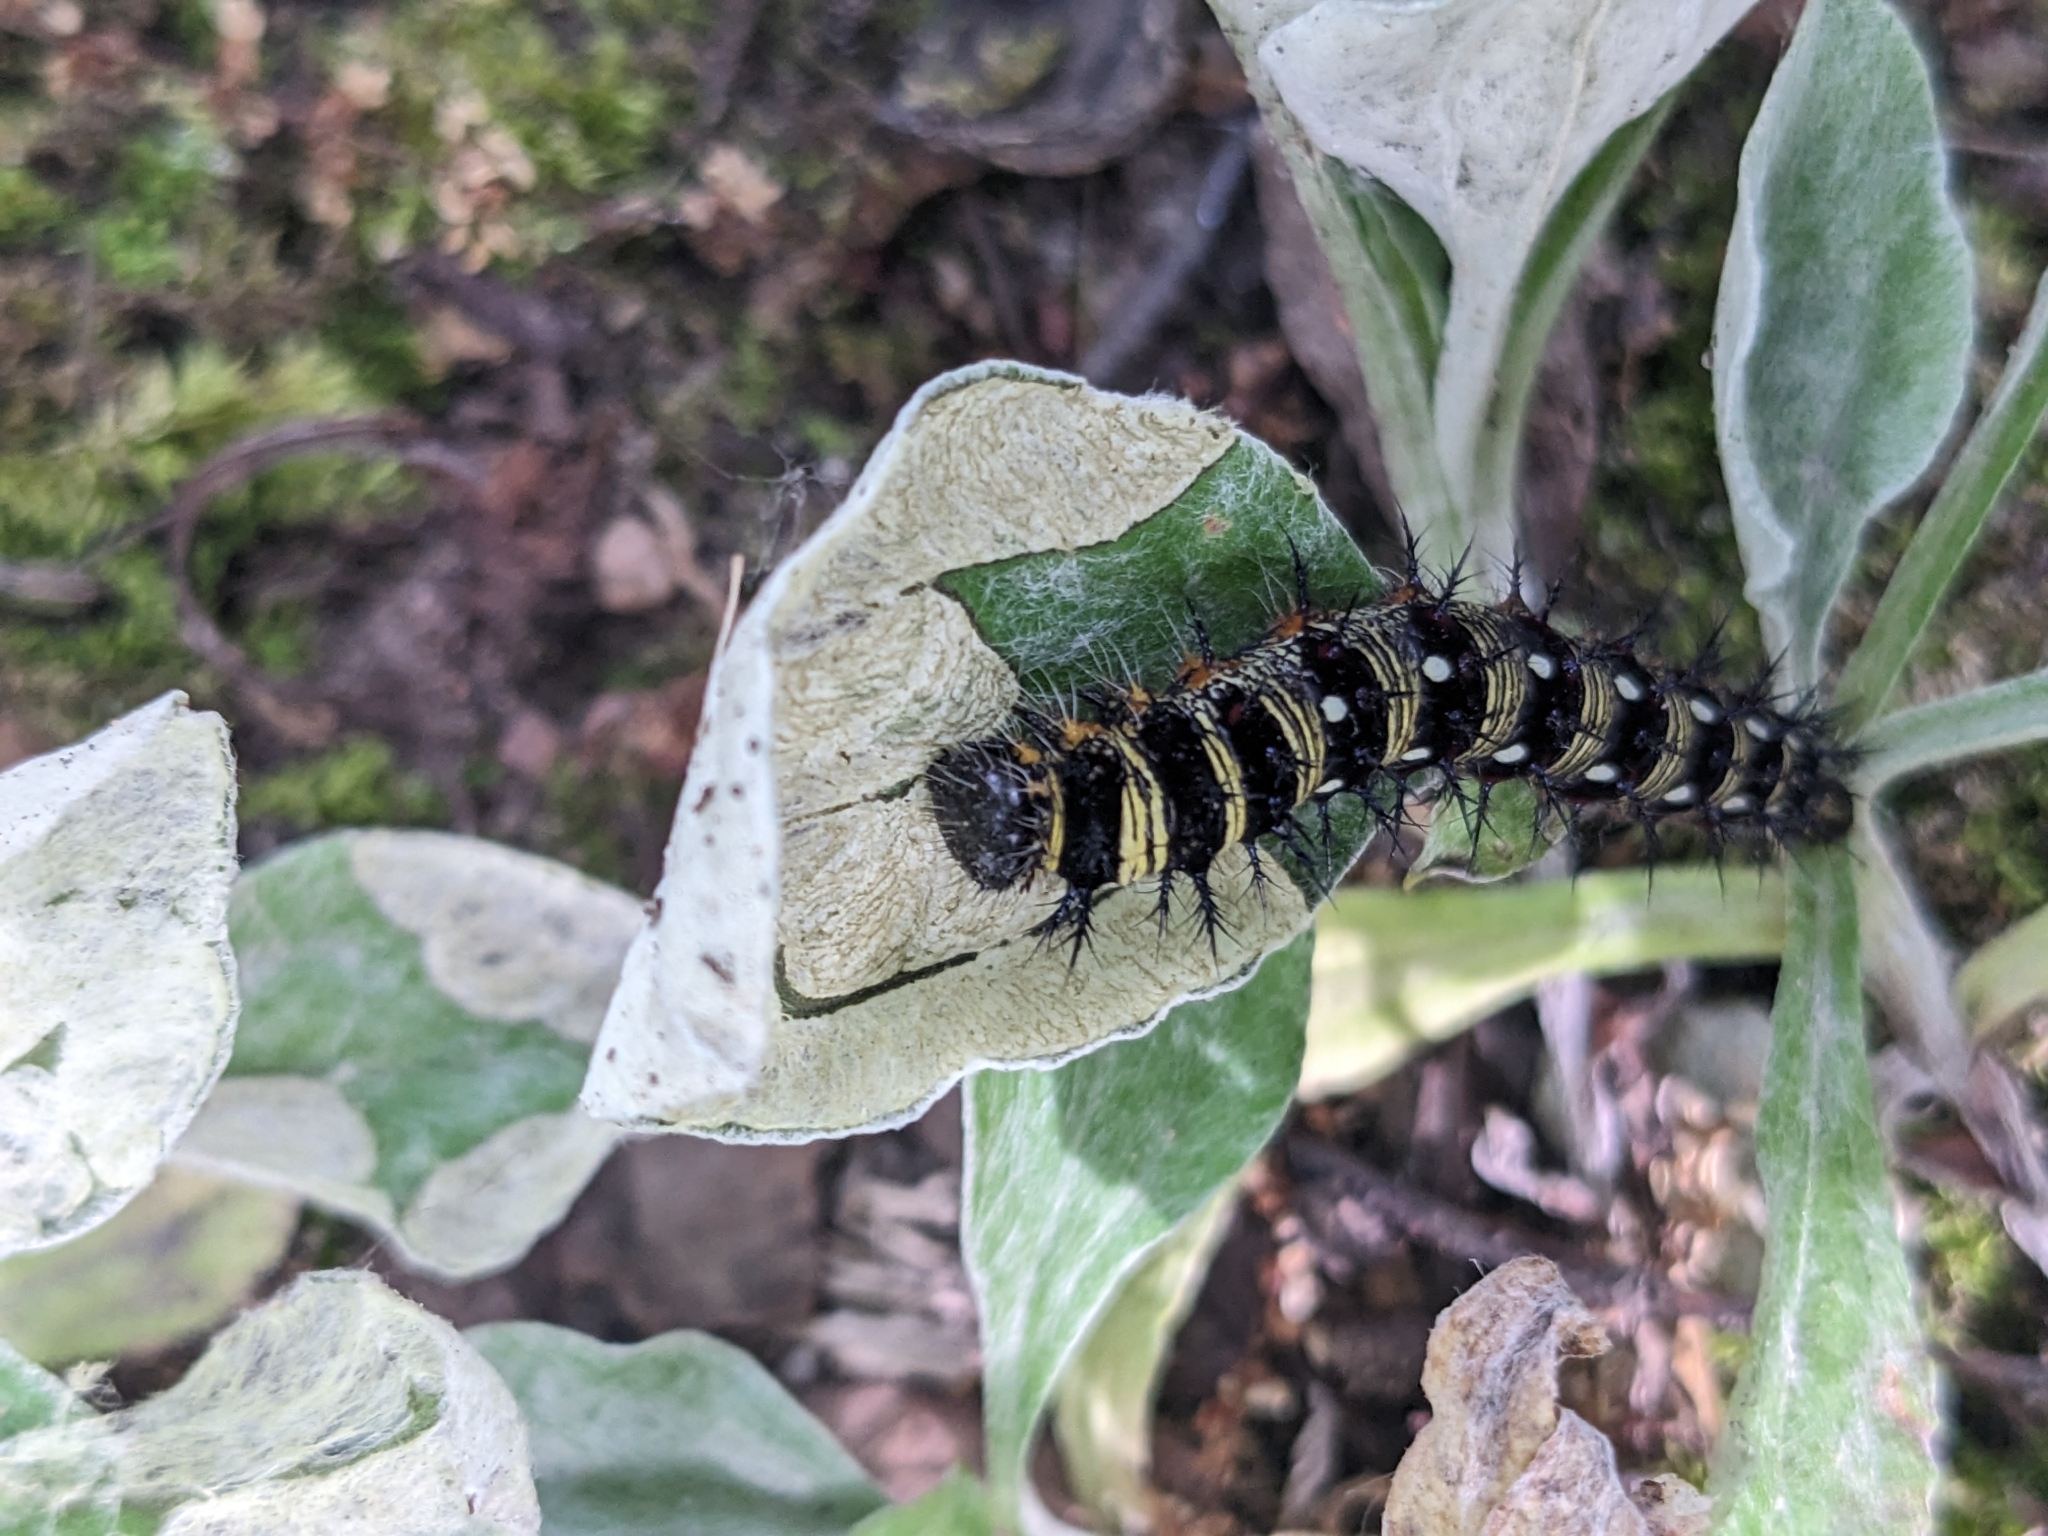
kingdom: Animalia
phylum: Arthropoda
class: Insecta
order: Lepidoptera
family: Nymphalidae
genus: Vanessa
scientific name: Vanessa virginiensis
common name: American lady
